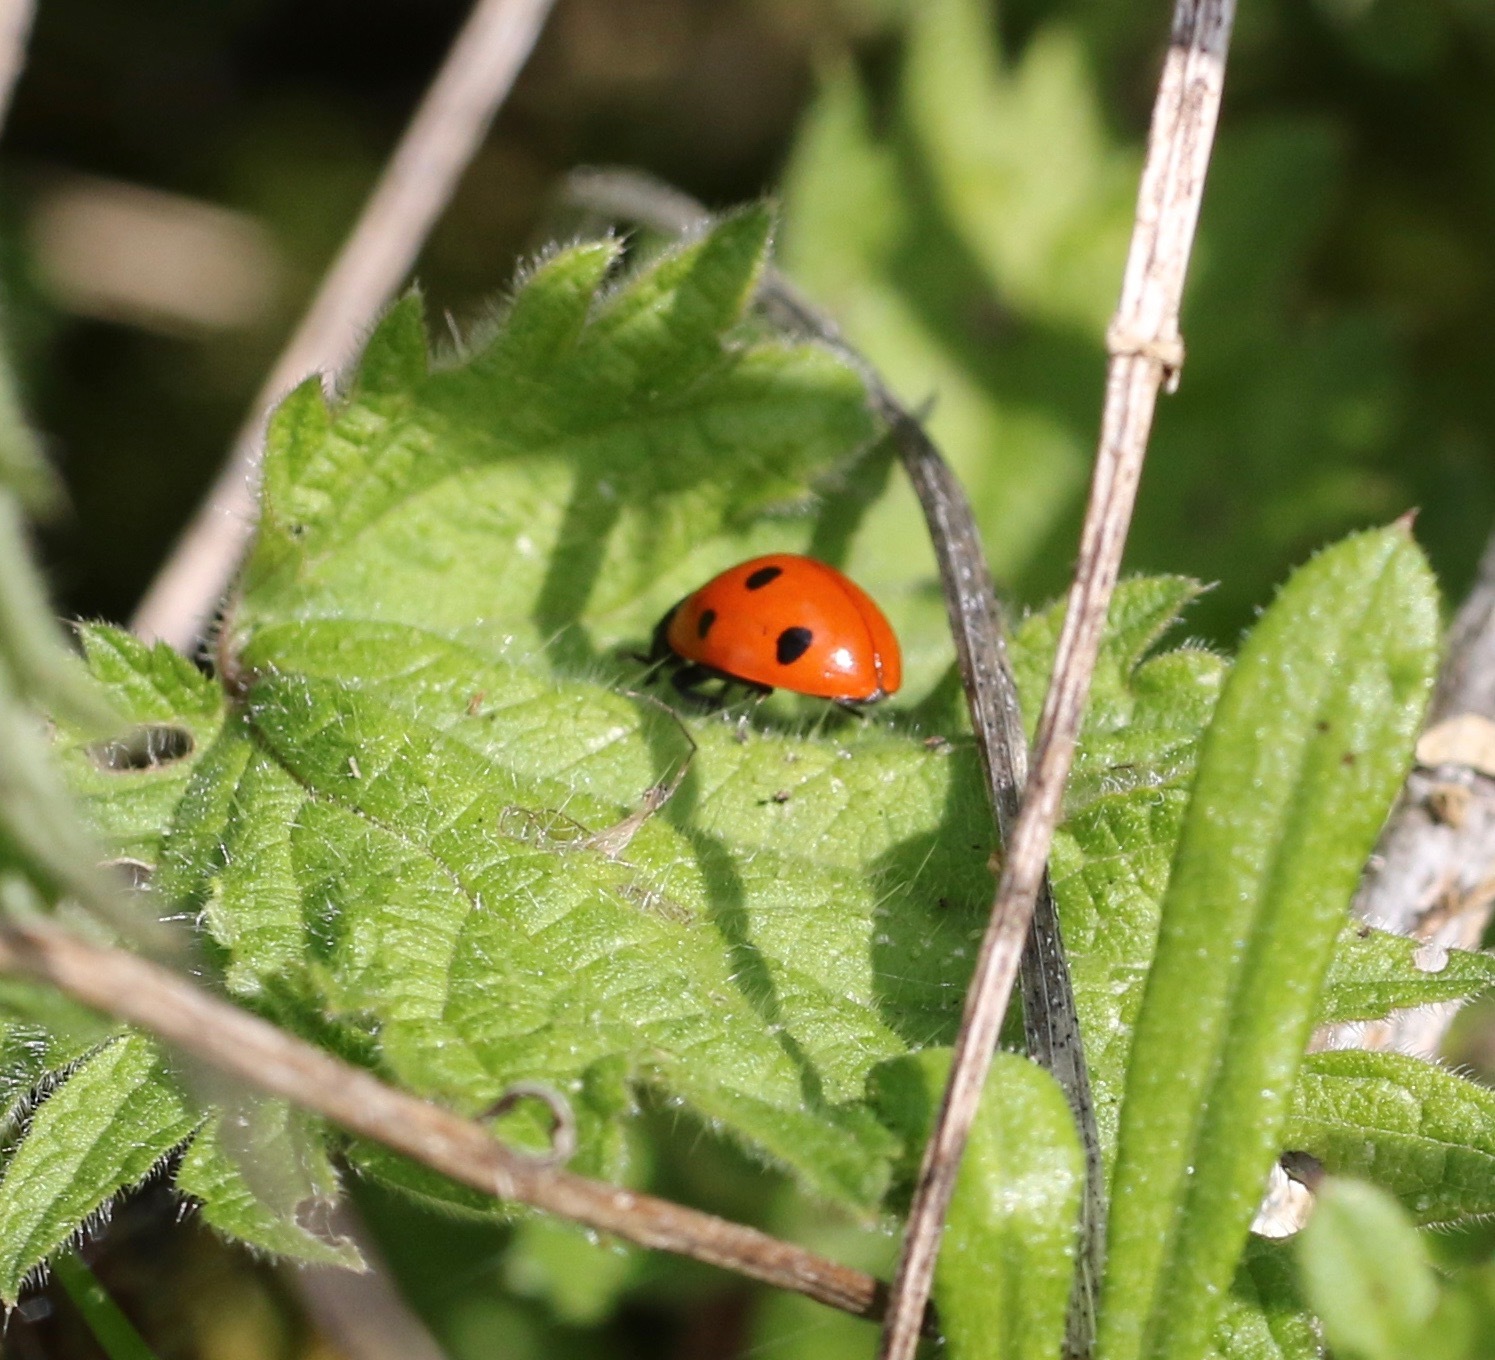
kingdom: Animalia
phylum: Arthropoda
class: Insecta
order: Coleoptera
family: Coccinellidae
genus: Coccinella
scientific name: Coccinella septempunctata
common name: Sevenspotted lady beetle
